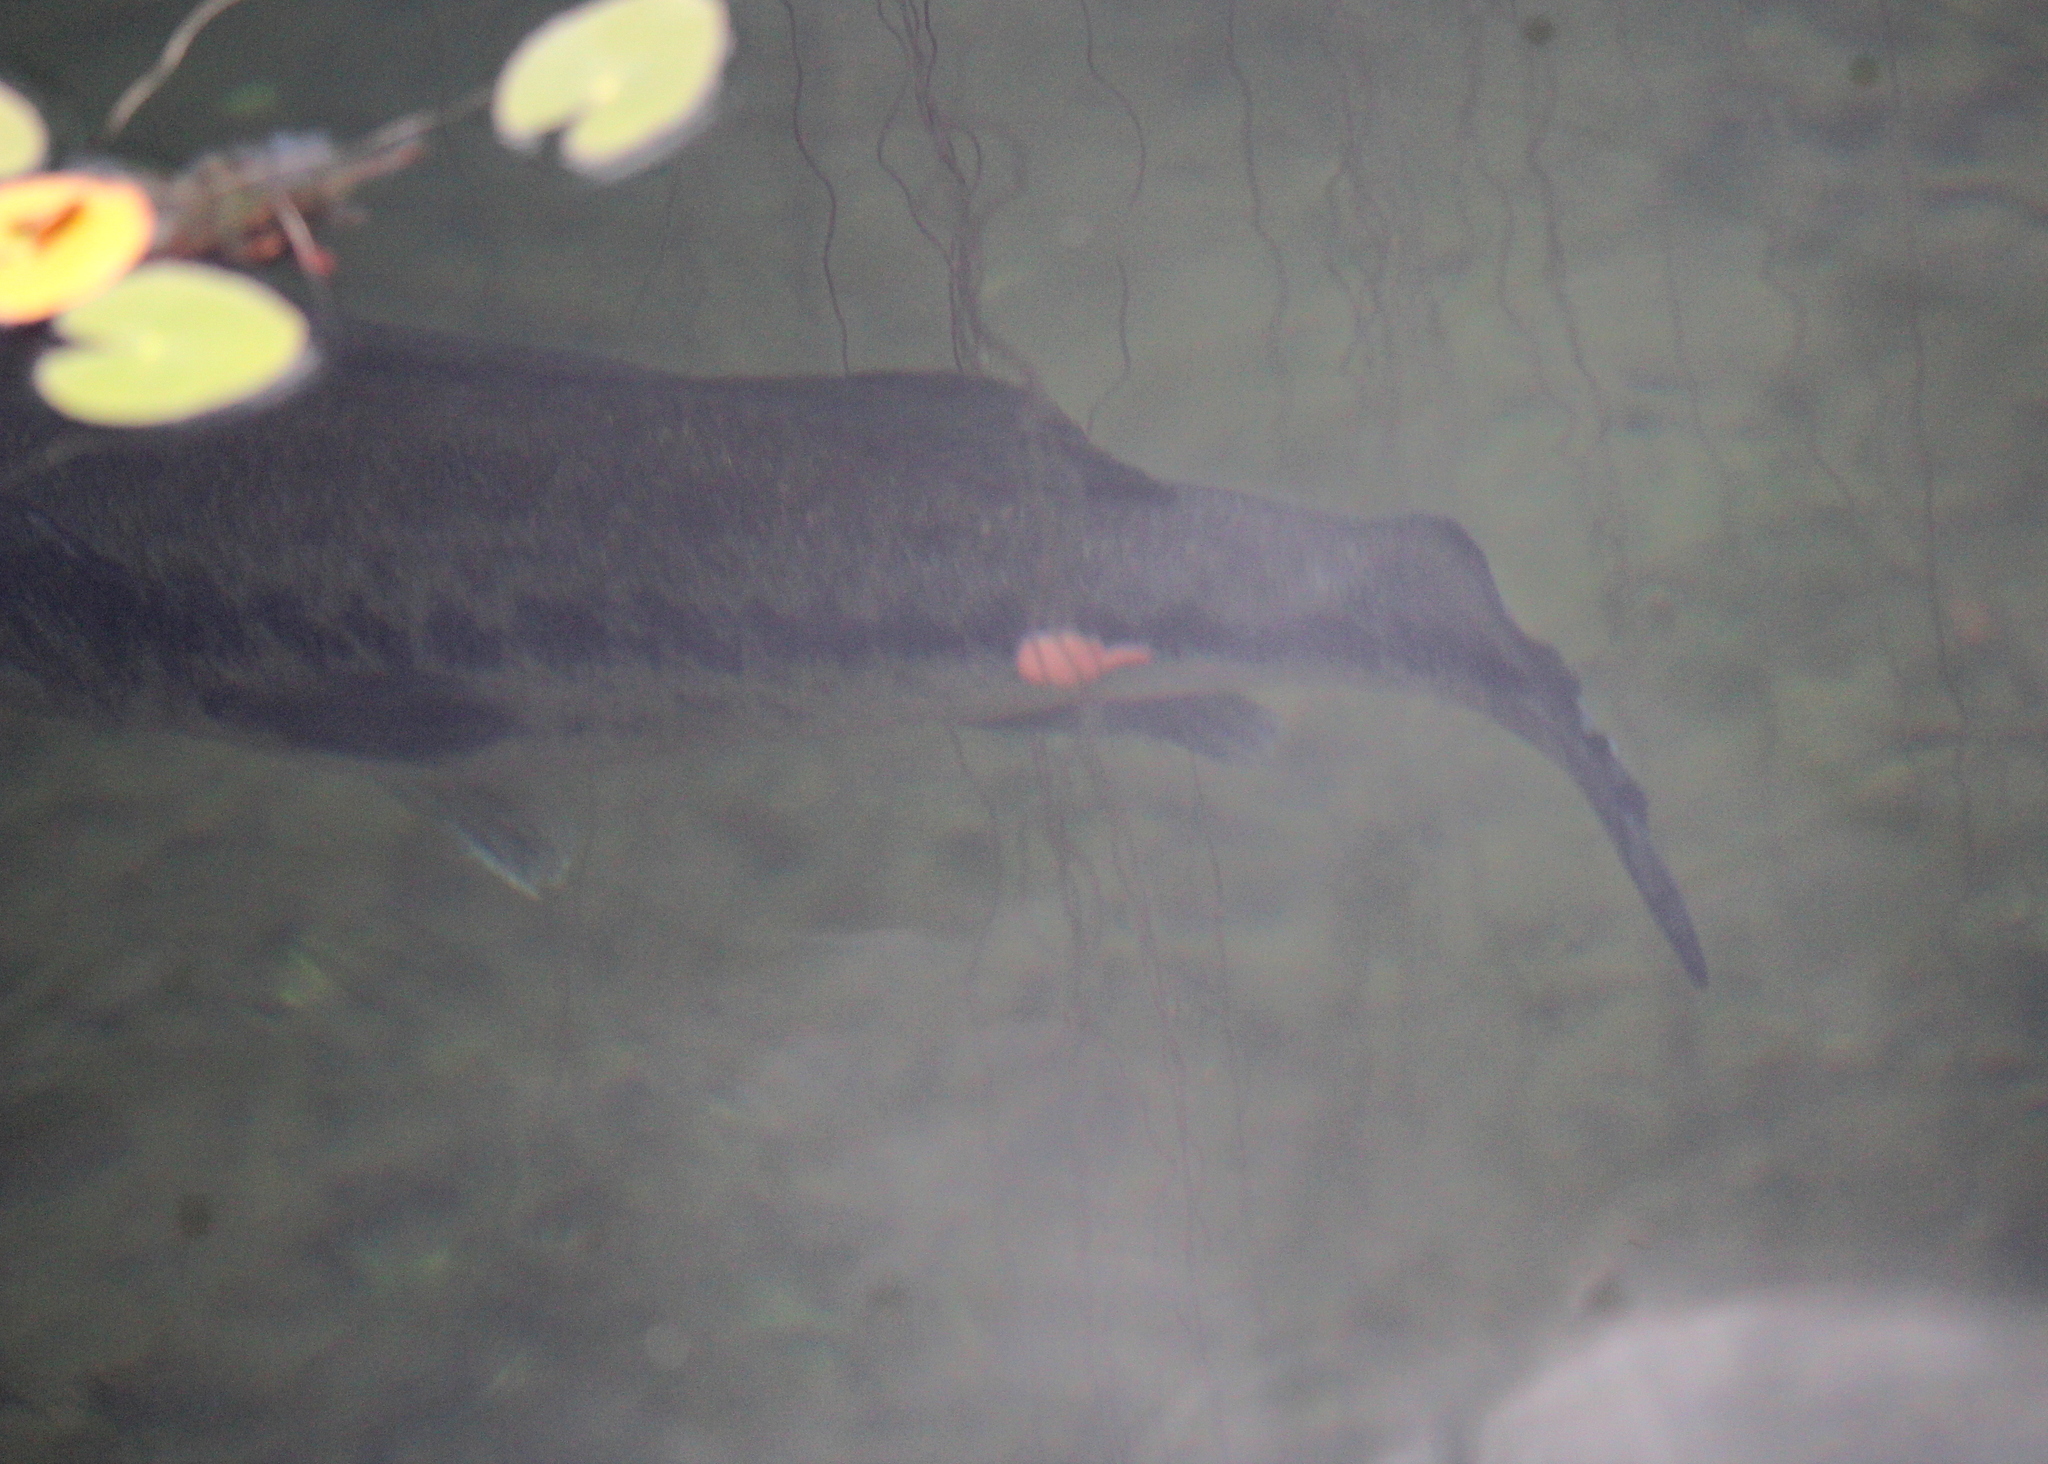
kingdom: Animalia
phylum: Chordata
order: Perciformes
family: Centrarchidae
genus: Micropterus
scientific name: Micropterus
